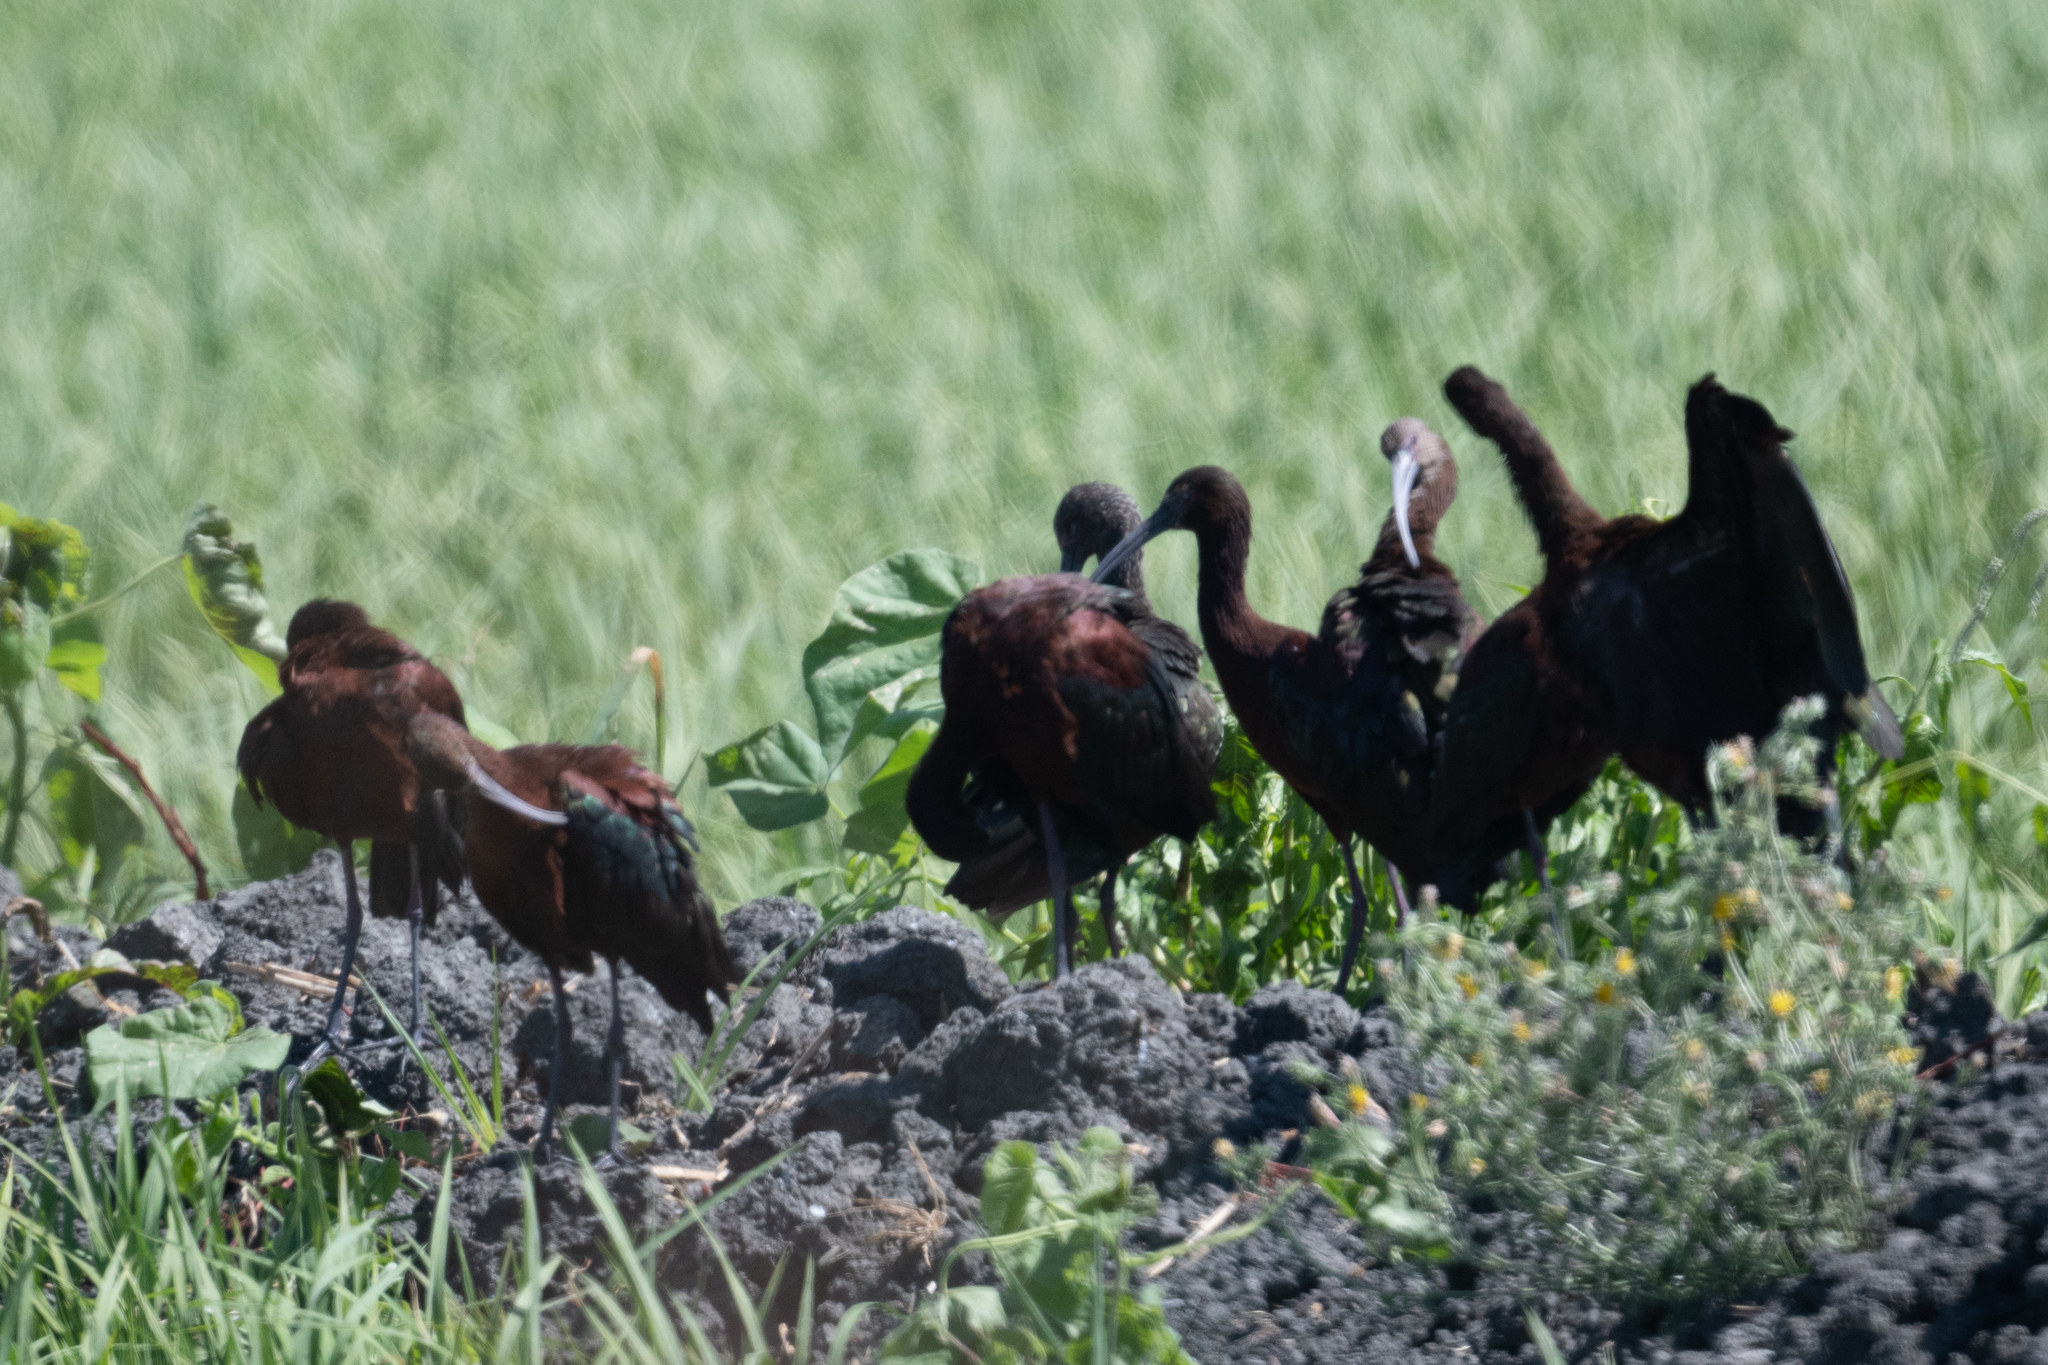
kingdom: Animalia
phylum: Chordata
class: Aves
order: Pelecaniformes
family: Threskiornithidae
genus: Plegadis
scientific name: Plegadis chihi
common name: White-faced ibis
